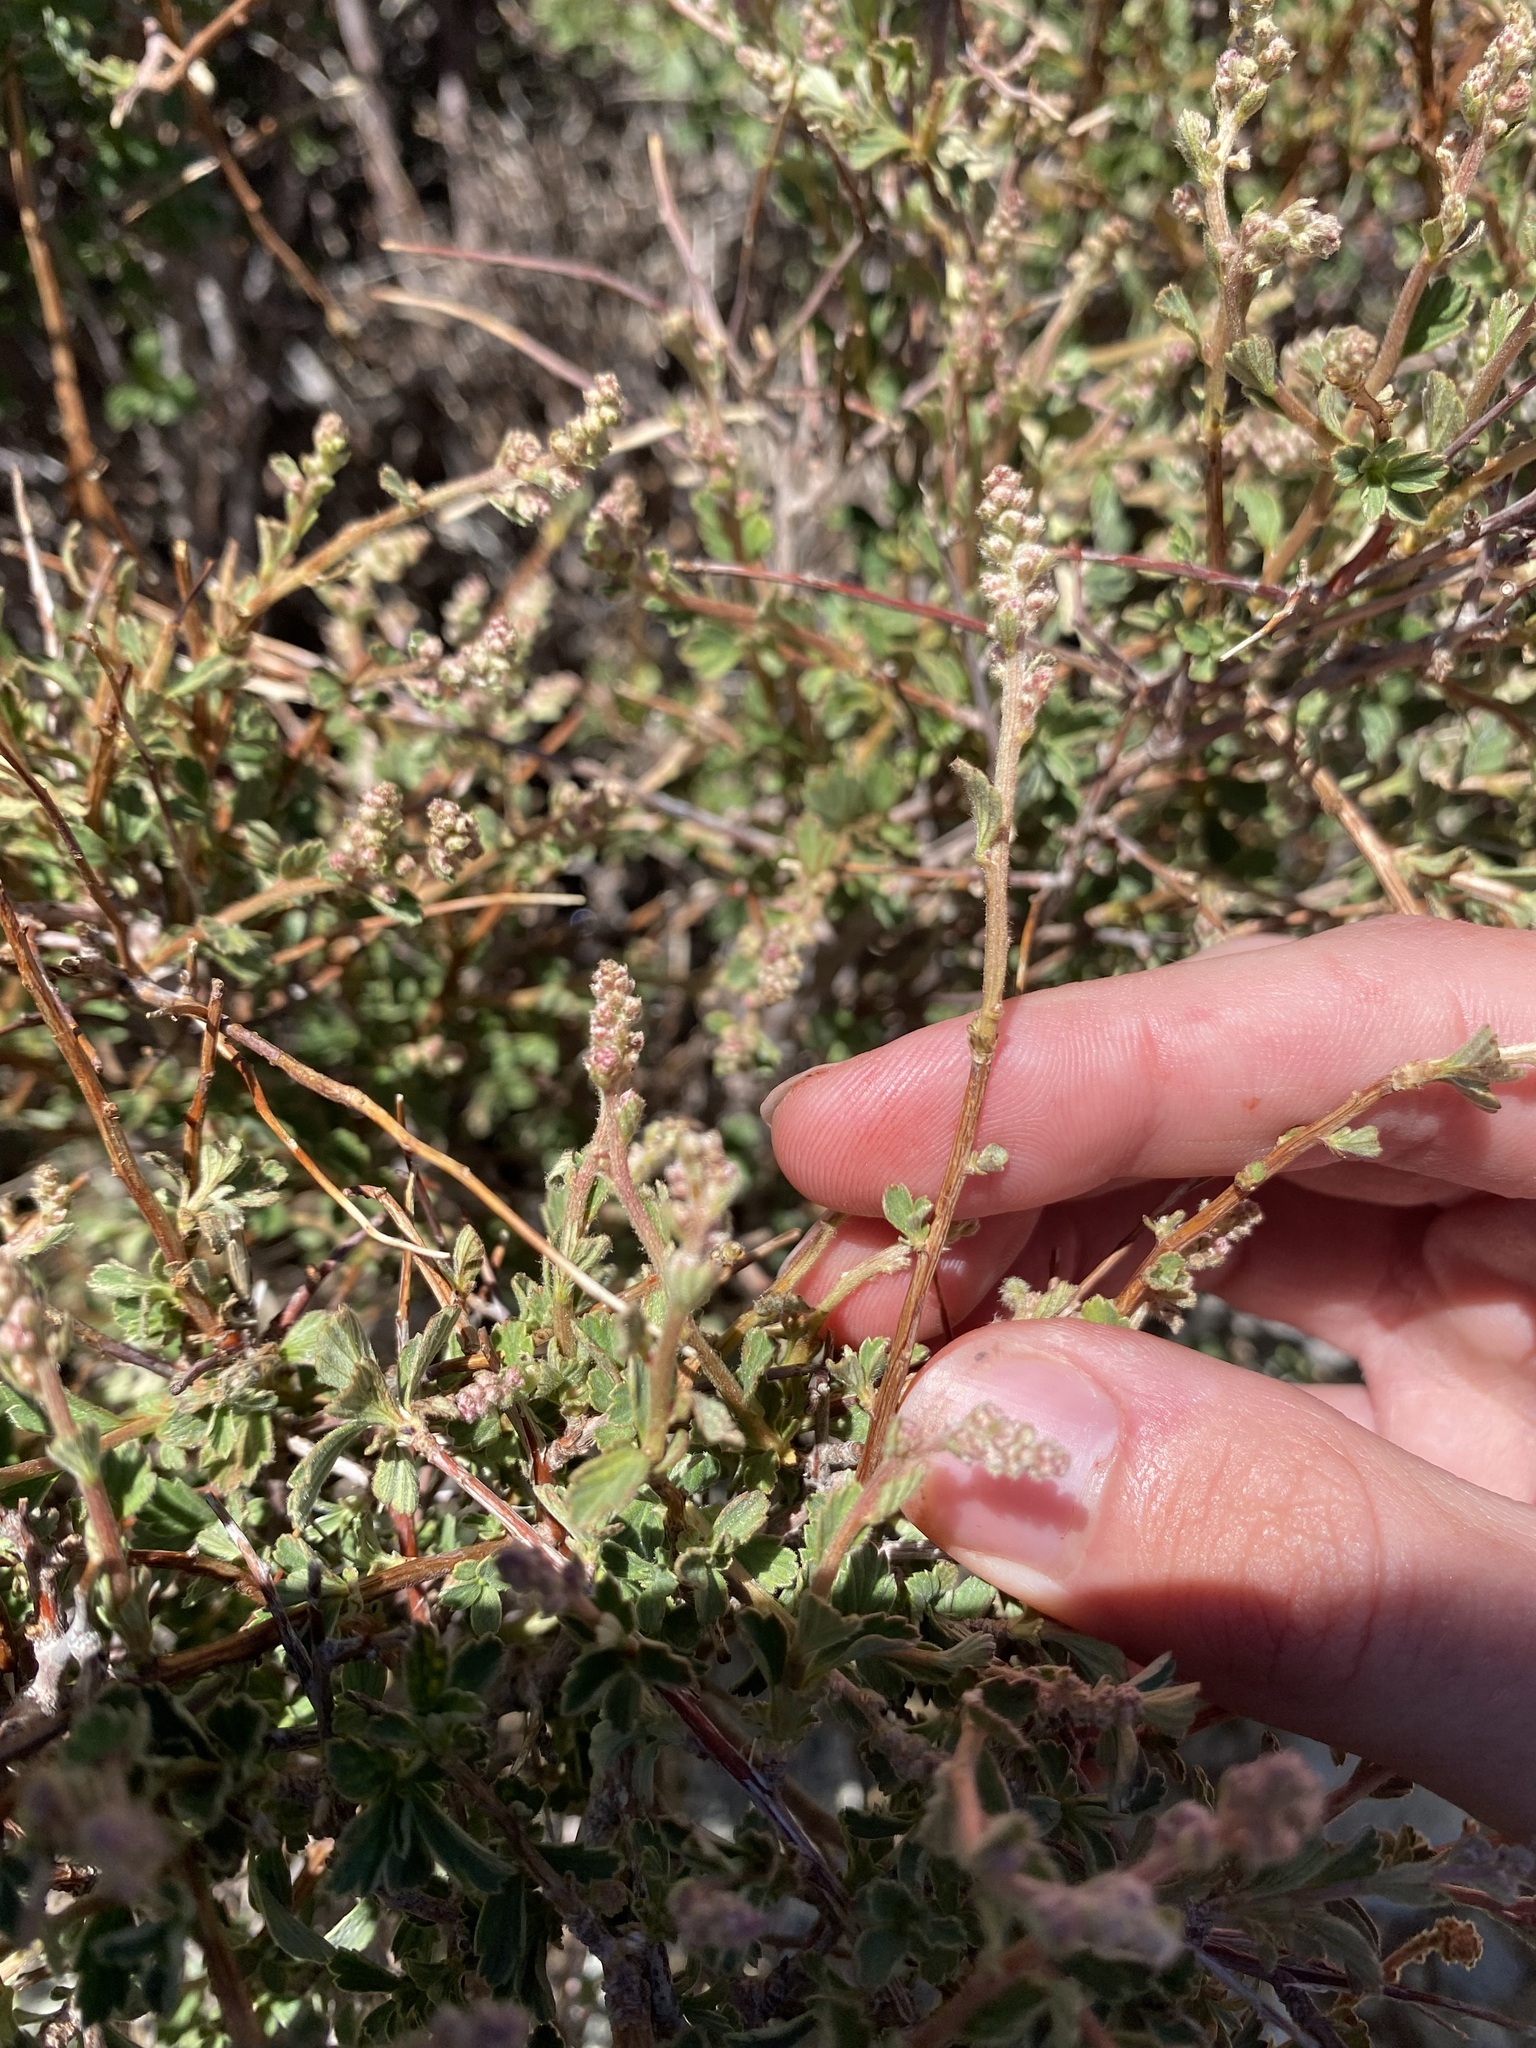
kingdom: Plantae
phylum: Tracheophyta
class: Magnoliopsida
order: Rosales
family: Rosaceae
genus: Holodiscus
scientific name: Holodiscus discolor
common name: Oceanspray
